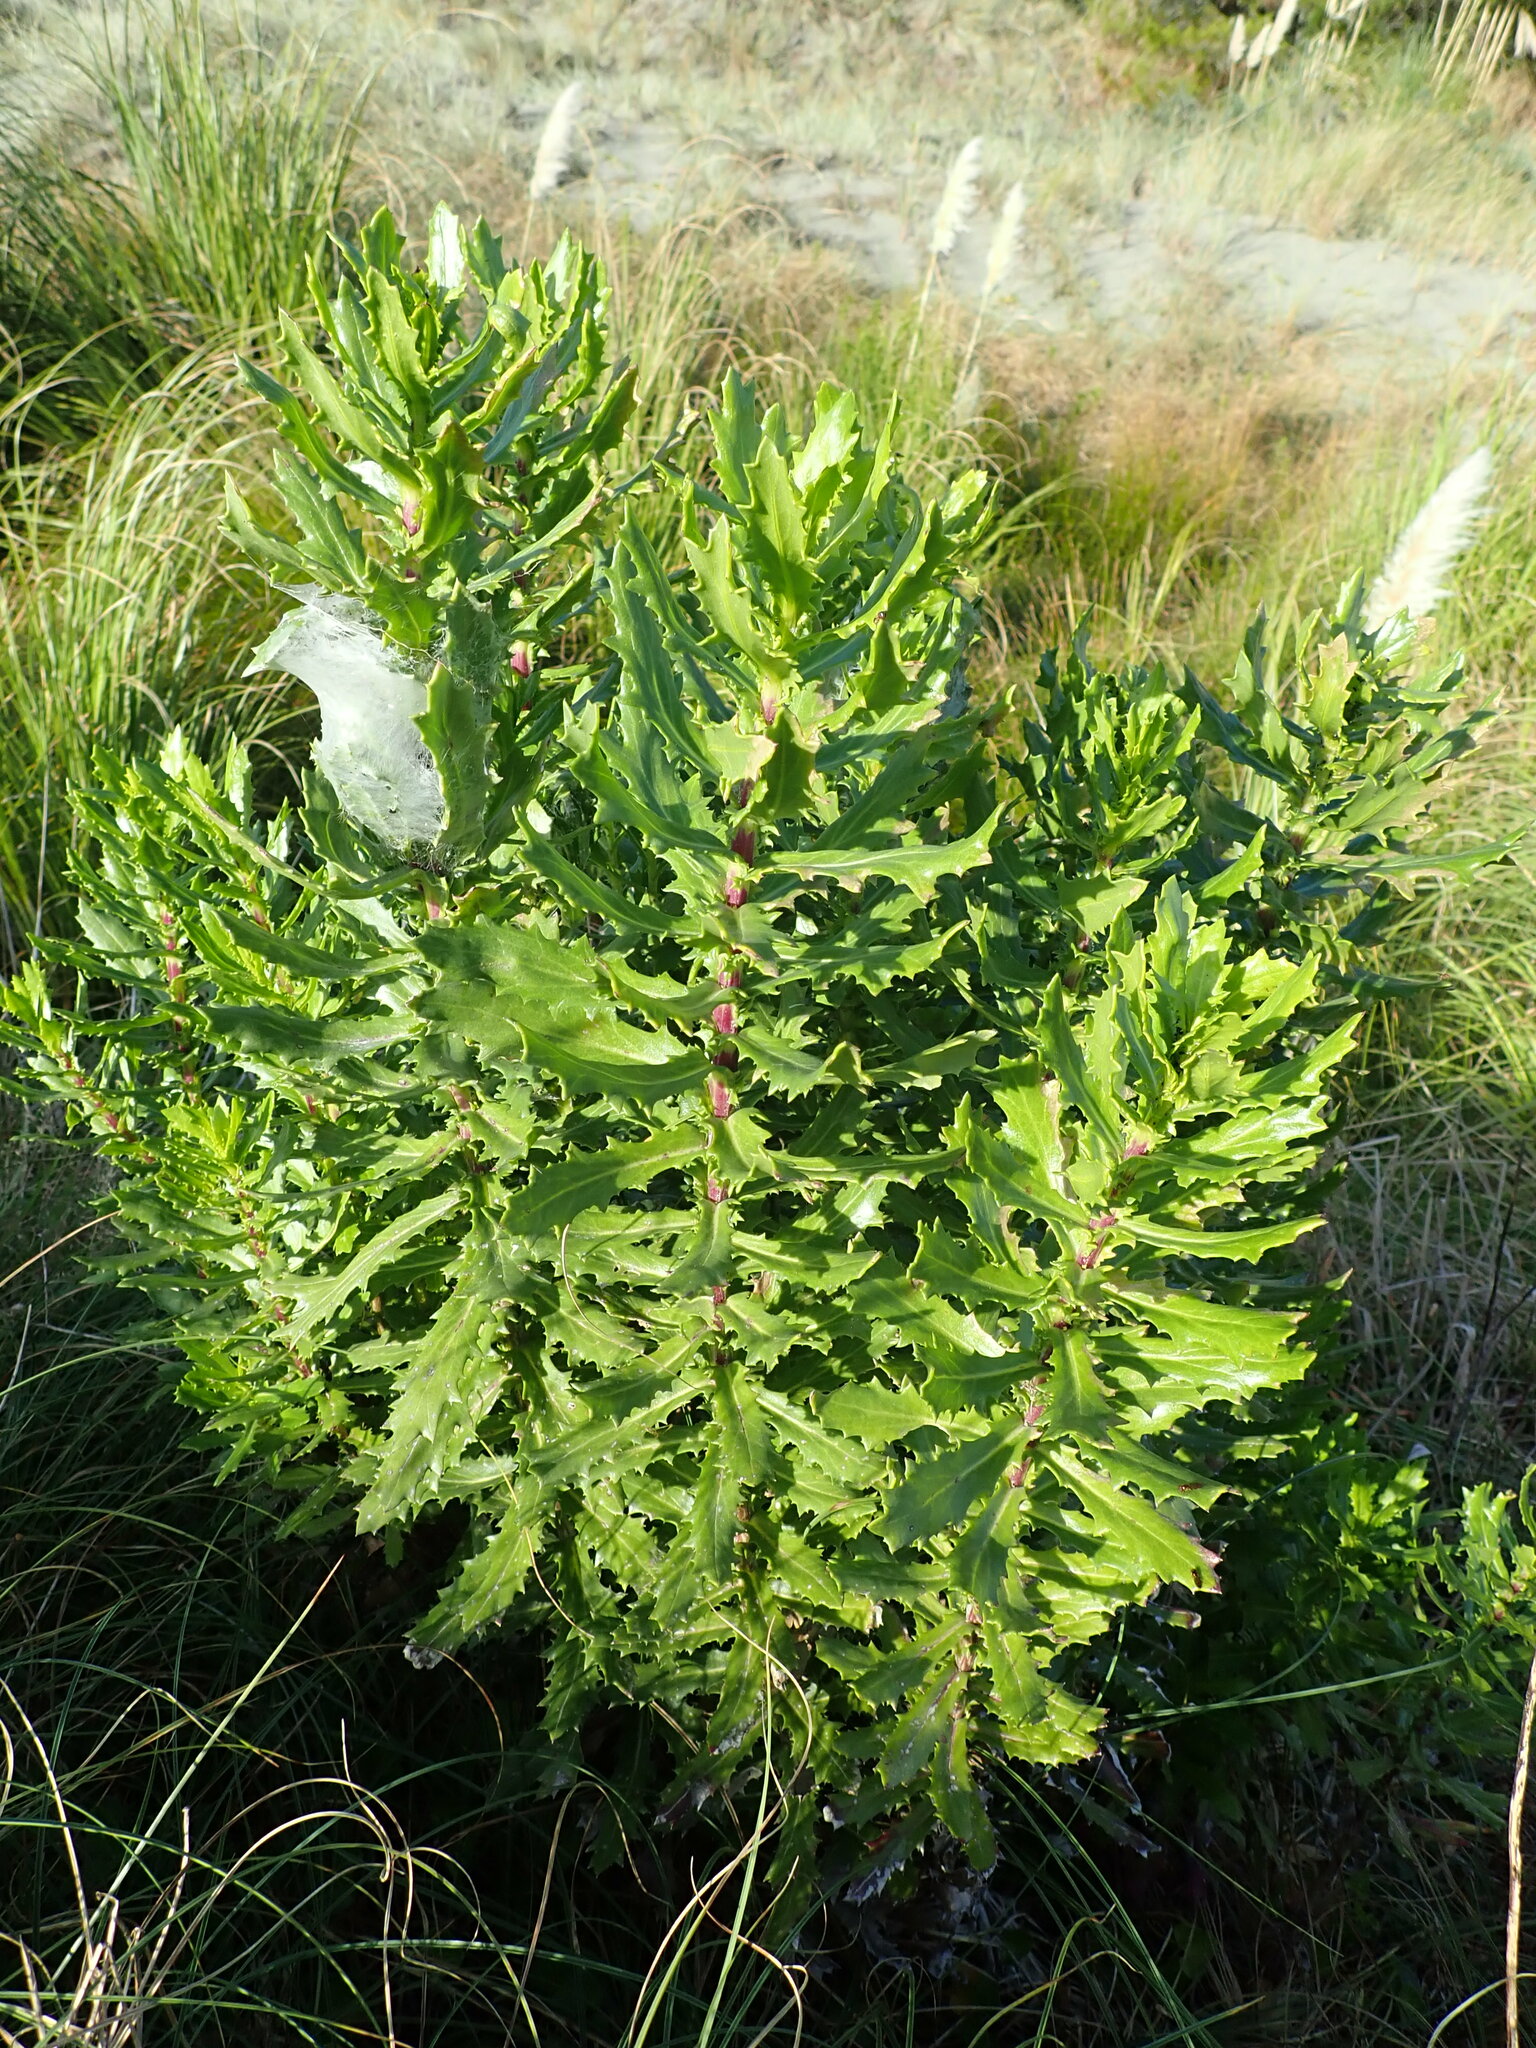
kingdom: Plantae
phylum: Tracheophyta
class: Magnoliopsida
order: Asterales
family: Asteraceae
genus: Senecio
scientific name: Senecio glastifolius
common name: Woad-leaved ragwort
